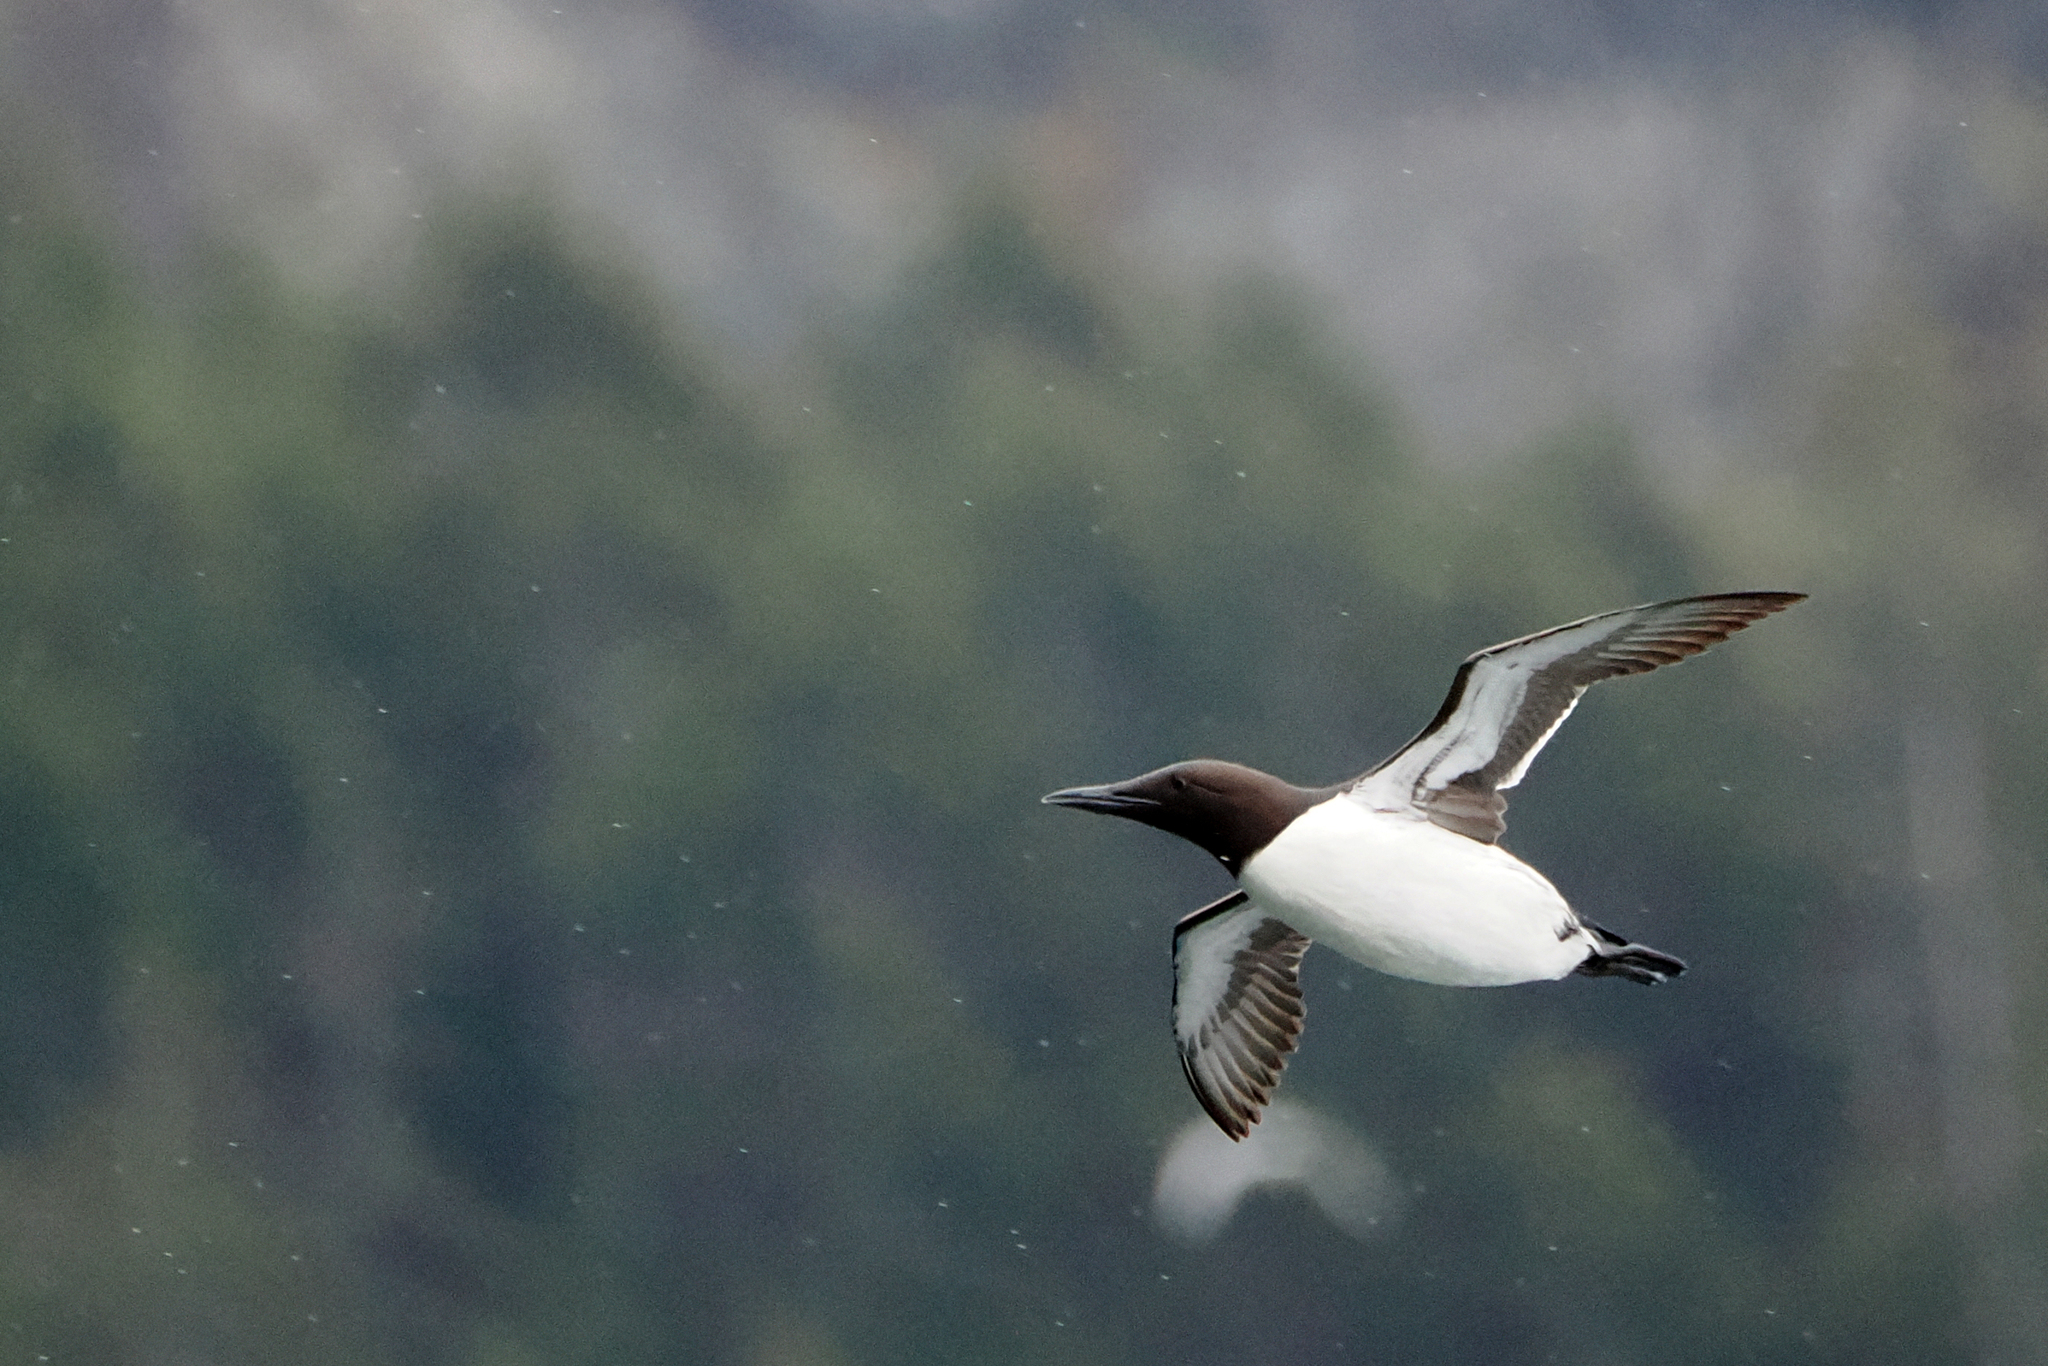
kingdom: Animalia
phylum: Chordata
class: Aves
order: Charadriiformes
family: Alcidae
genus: Uria
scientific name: Uria aalge
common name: Common murre
